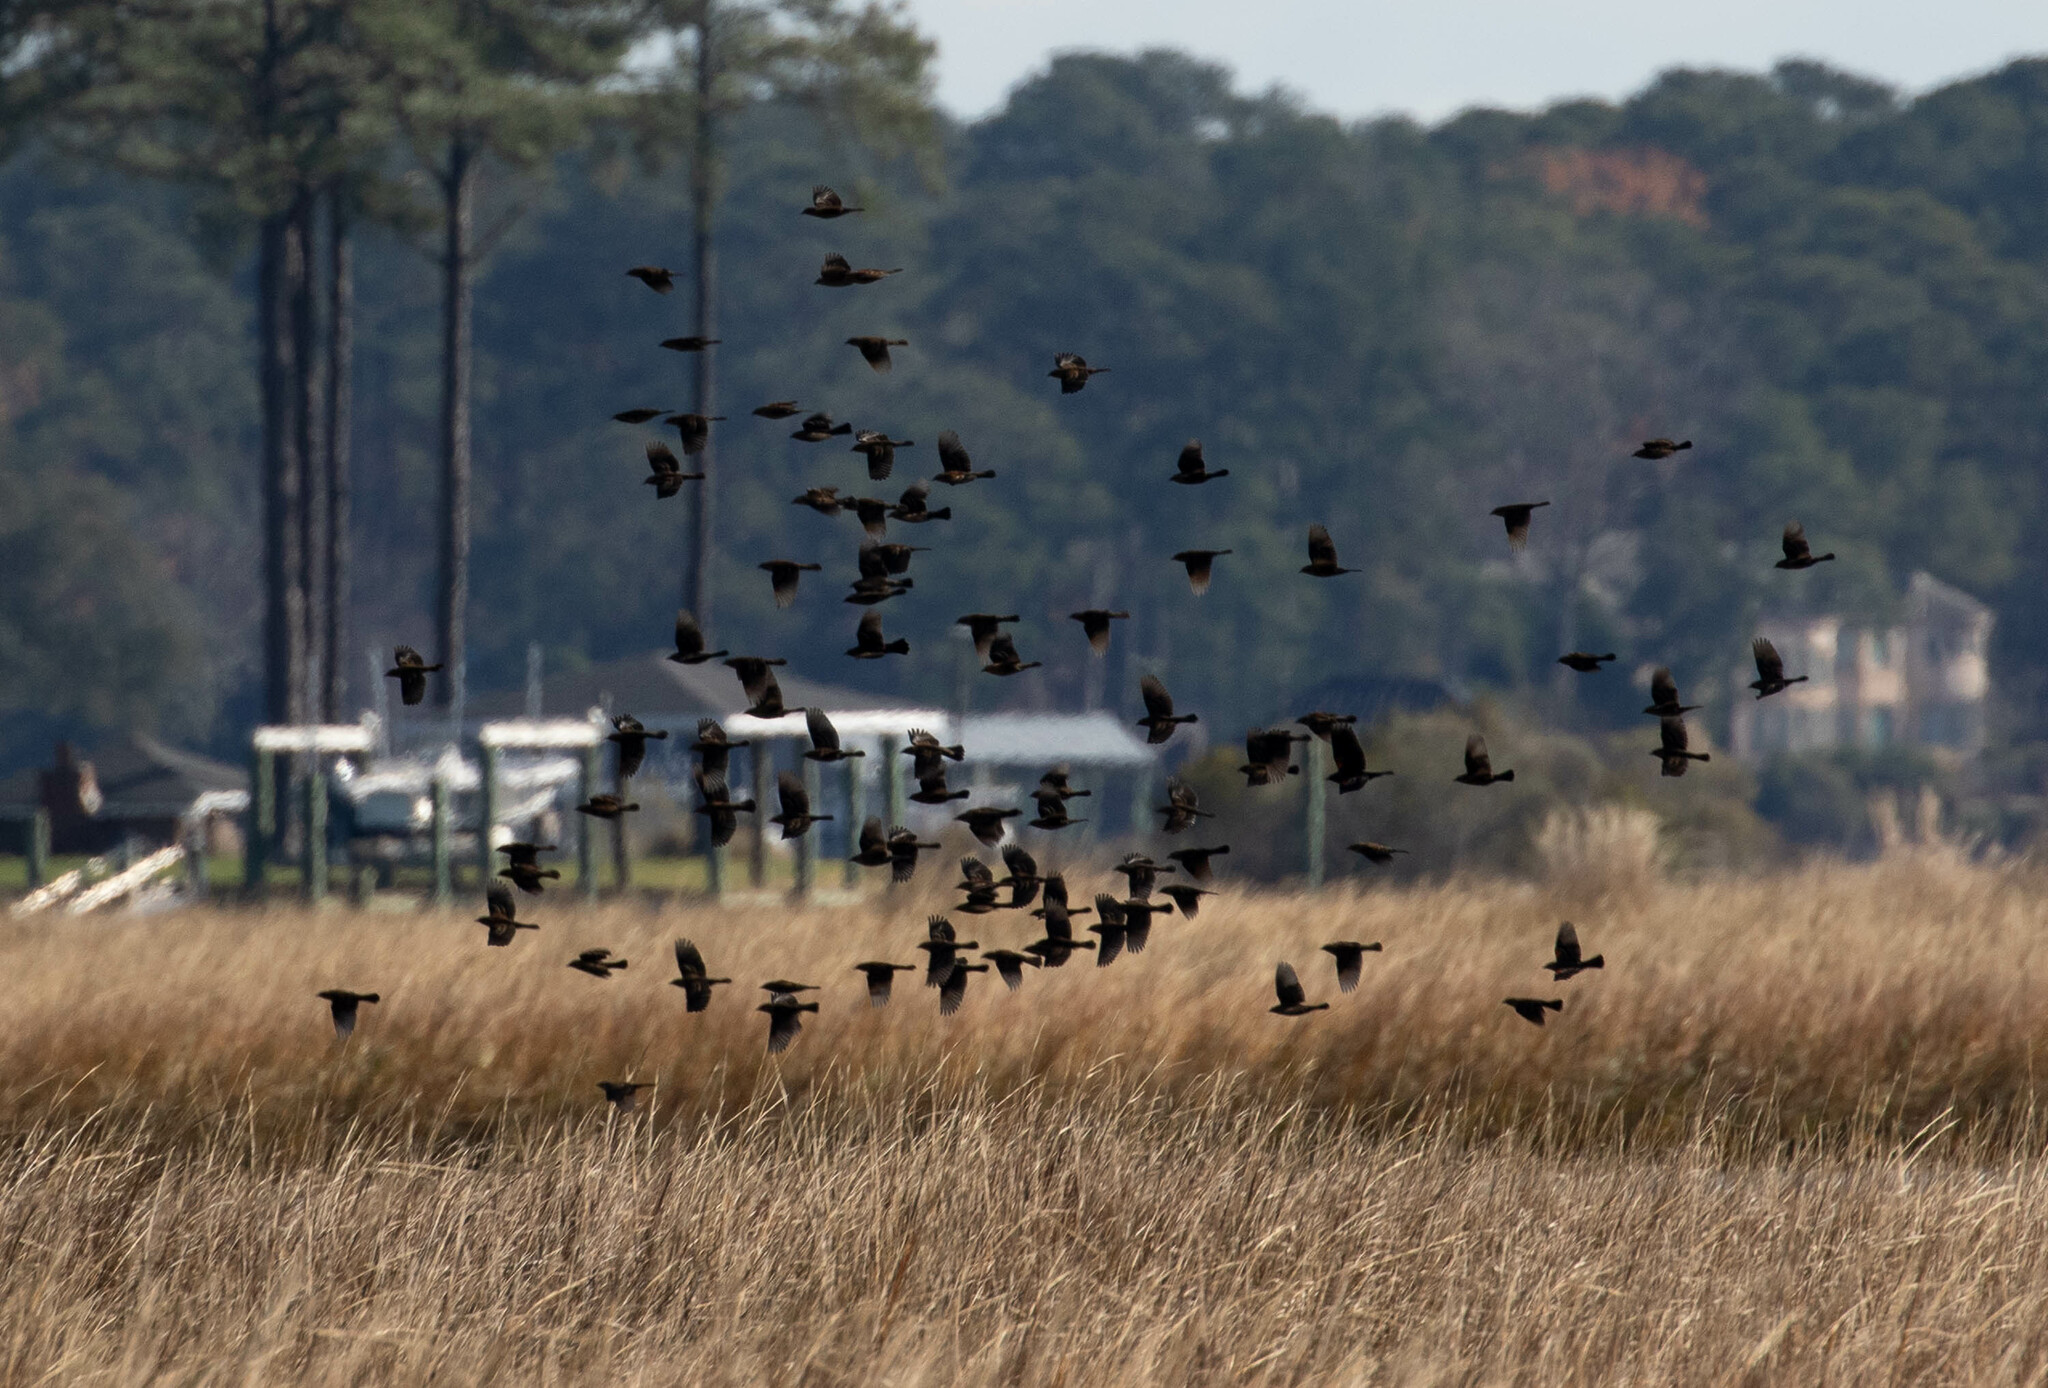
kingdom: Animalia
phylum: Chordata
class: Aves
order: Passeriformes
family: Icteridae
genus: Agelaius
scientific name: Agelaius phoeniceus
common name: Red-winged blackbird
